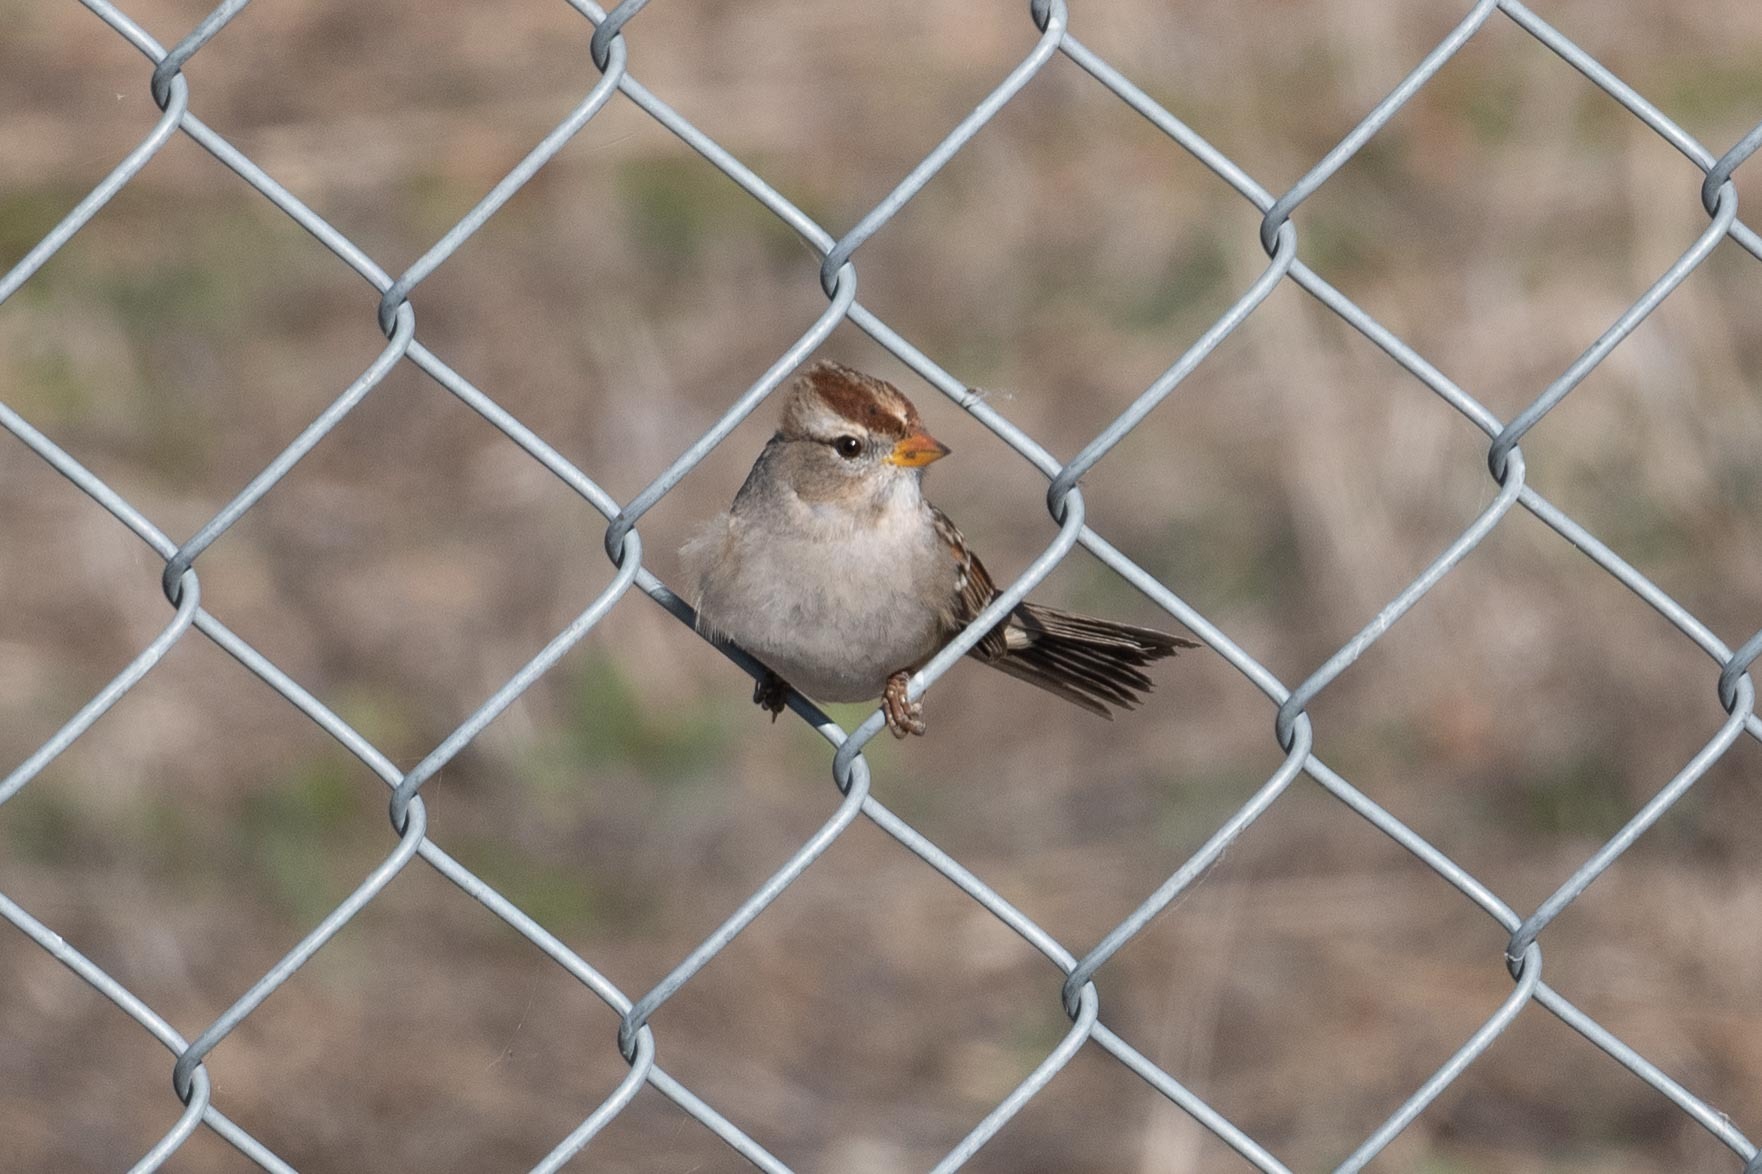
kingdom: Animalia
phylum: Chordata
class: Aves
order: Passeriformes
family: Passerellidae
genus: Zonotrichia
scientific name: Zonotrichia leucophrys
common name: White-crowned sparrow
